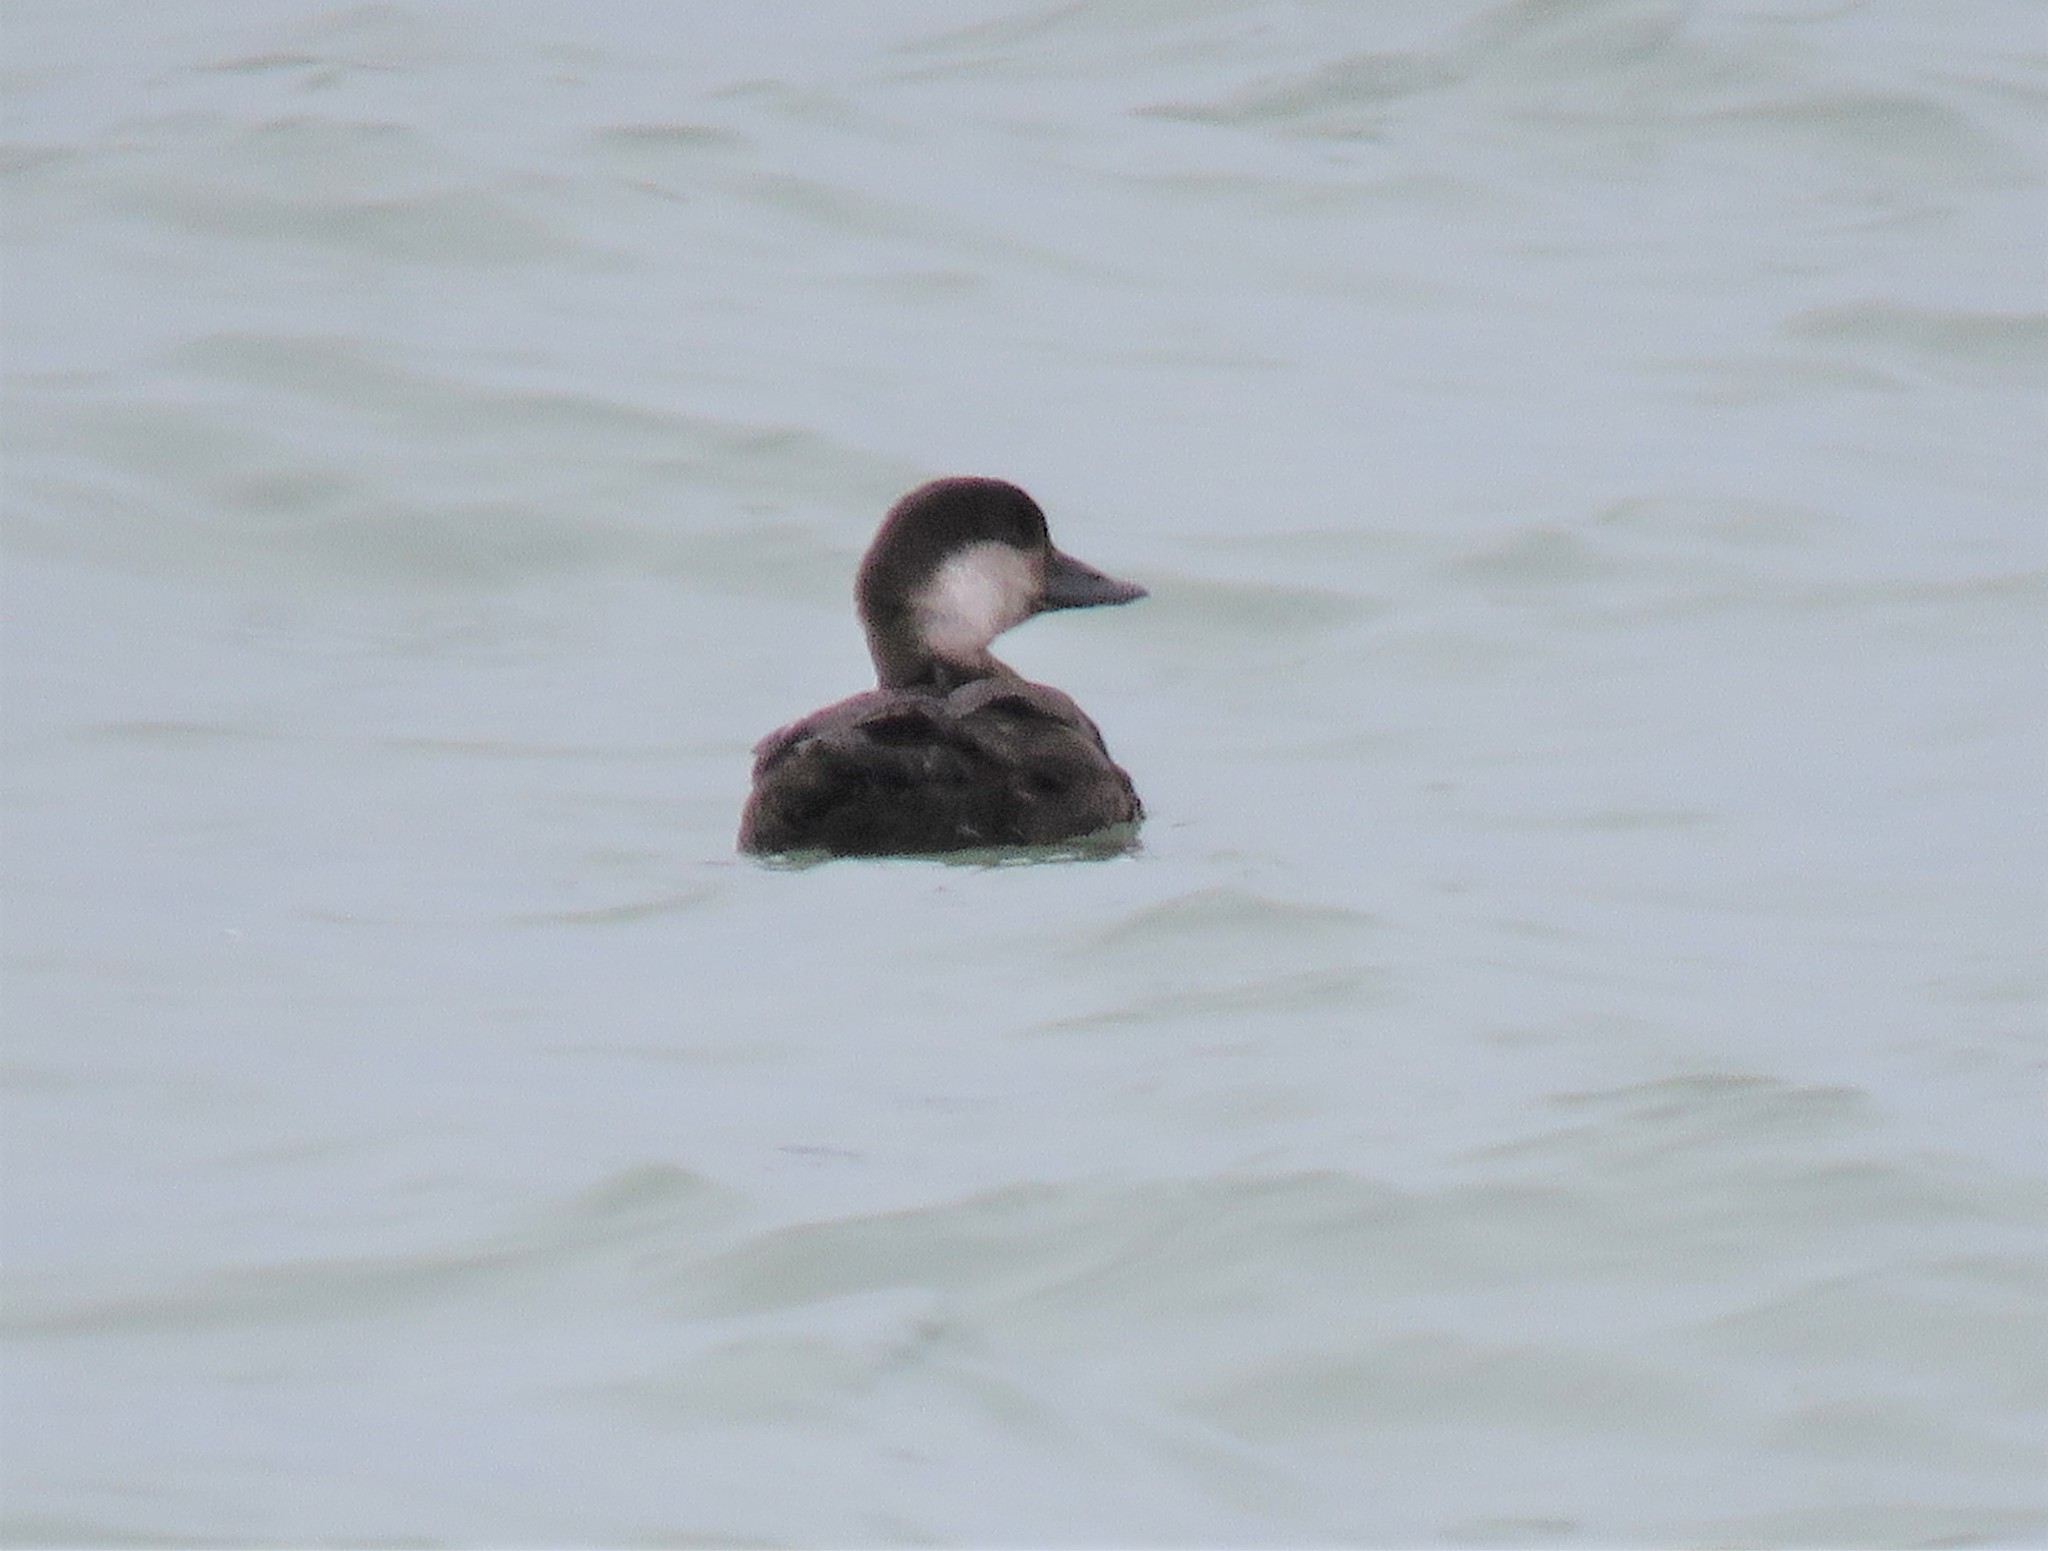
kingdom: Animalia
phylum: Chordata
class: Aves
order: Anseriformes
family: Anatidae
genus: Melanitta
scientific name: Melanitta americana
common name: Black scoter
